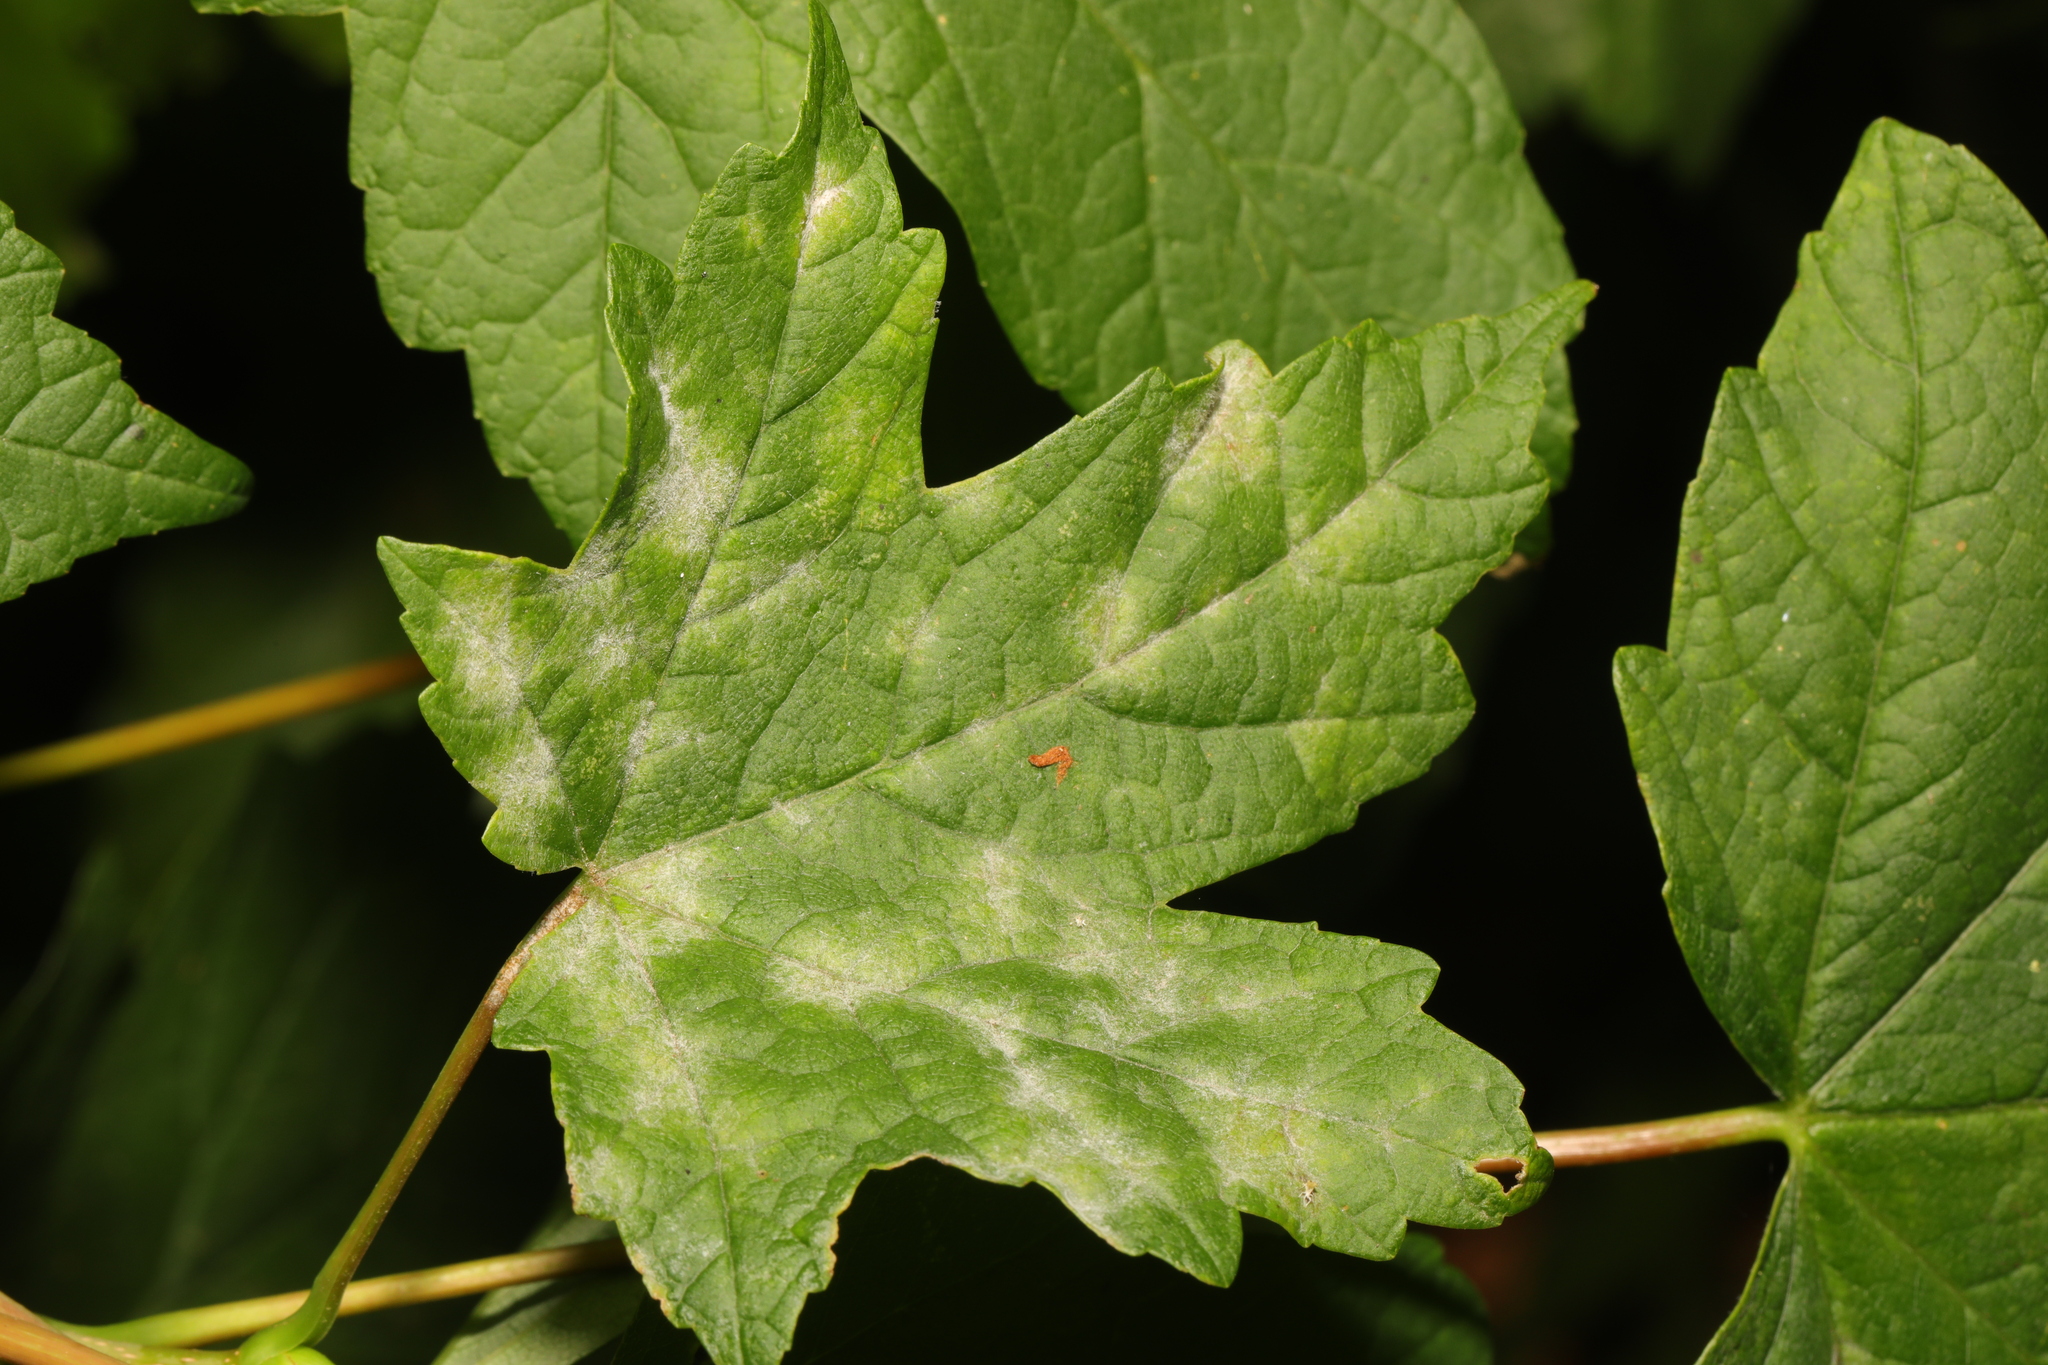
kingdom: Fungi
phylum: Ascomycota
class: Leotiomycetes
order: Helotiales
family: Erysiphaceae
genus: Sawadaea
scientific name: Sawadaea bicornis
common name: Maple mildew
